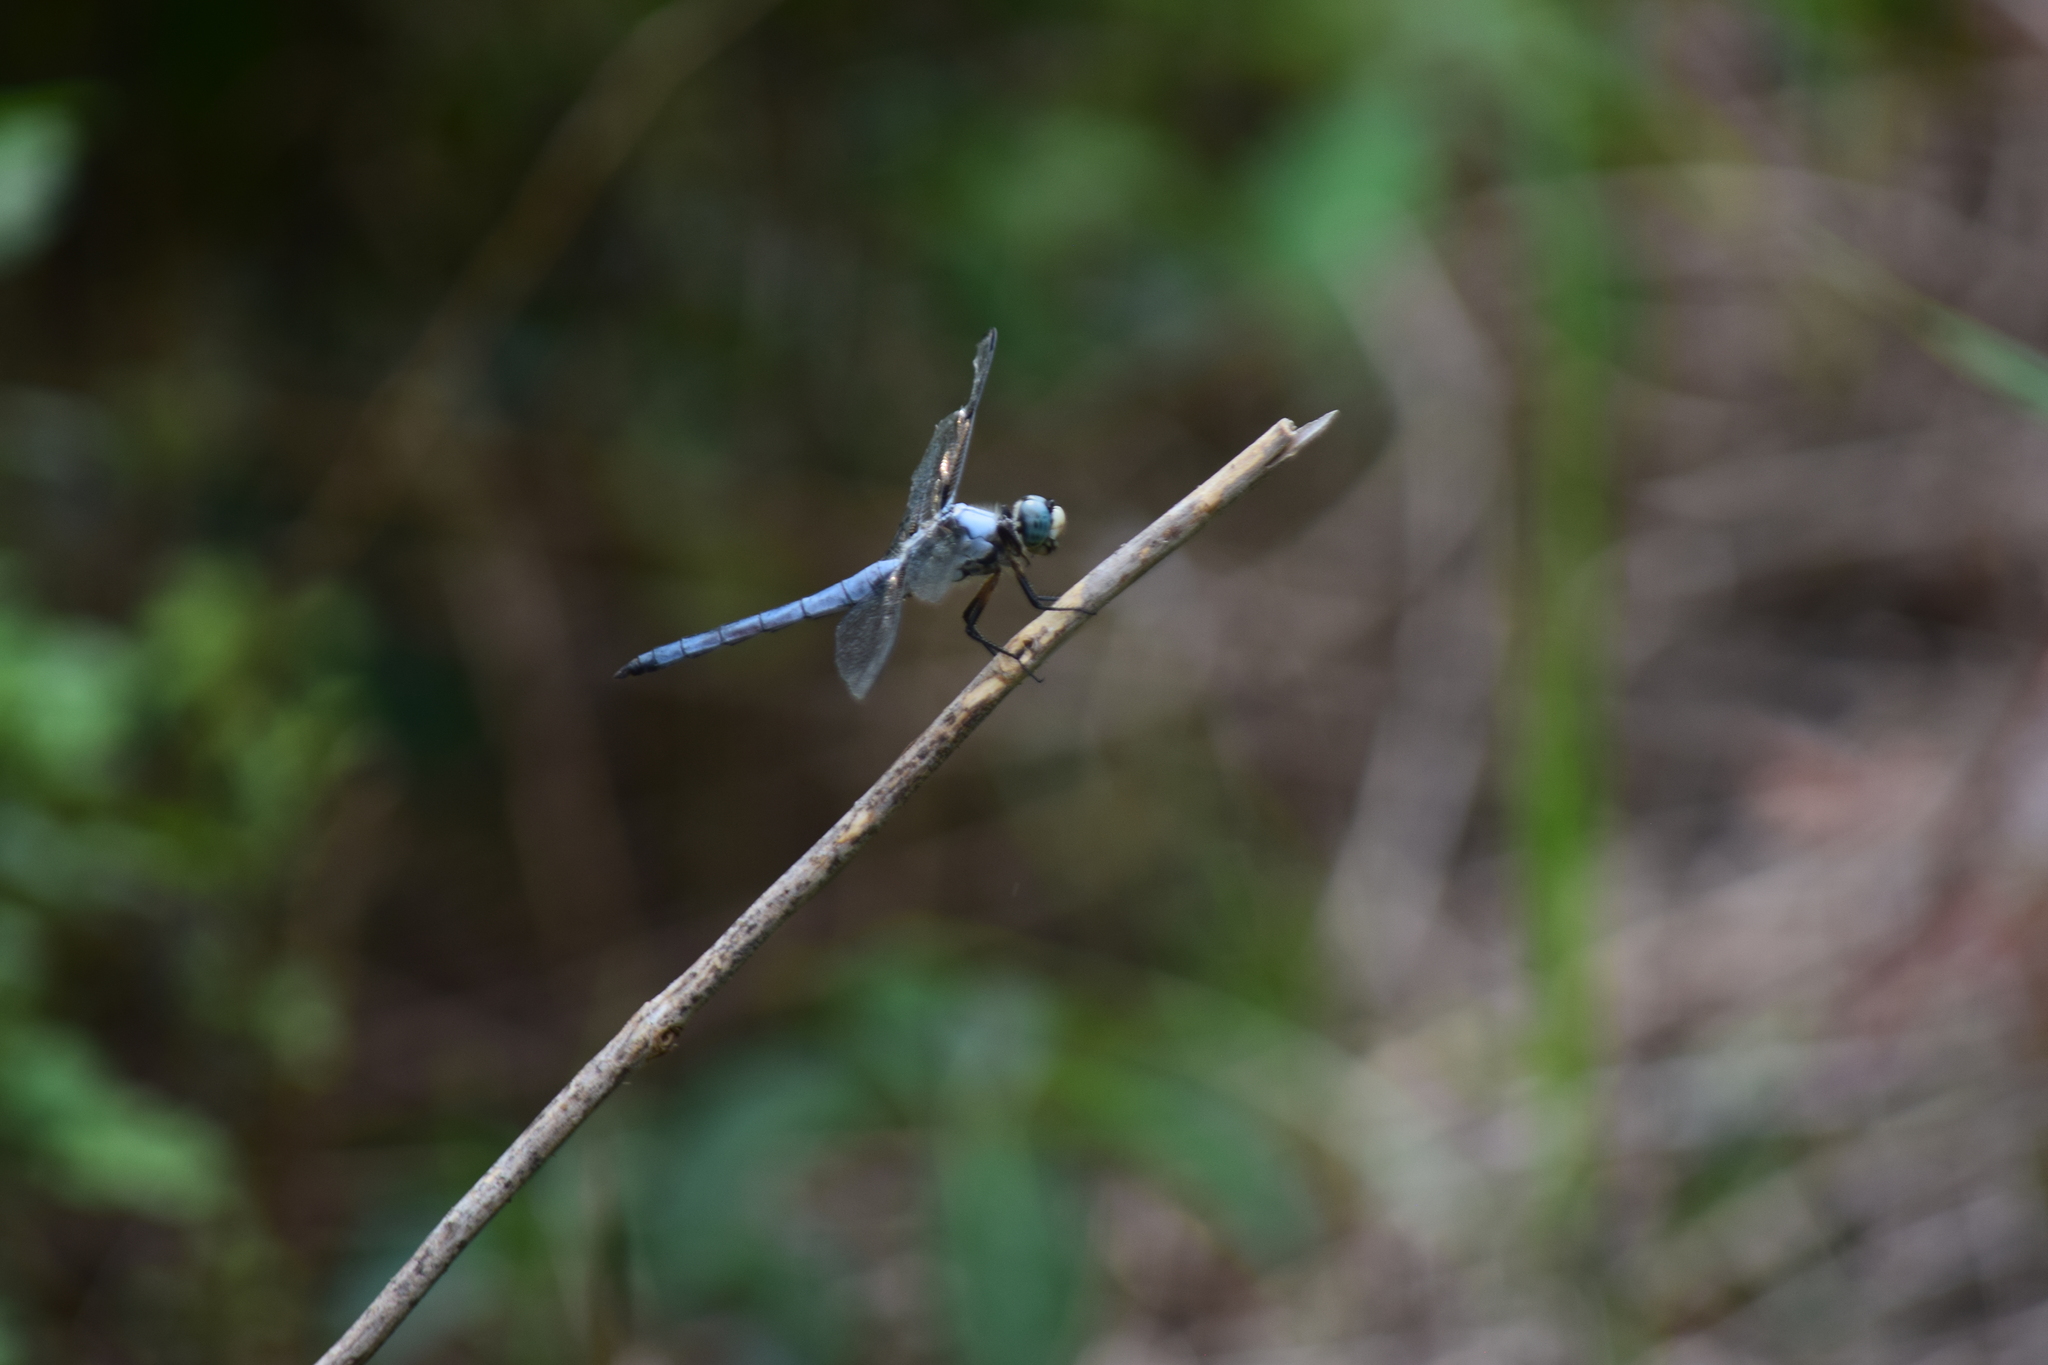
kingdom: Animalia
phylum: Arthropoda
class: Insecta
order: Odonata
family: Libellulidae
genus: Libellula
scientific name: Libellula vibrans
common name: Great blue skimmer
